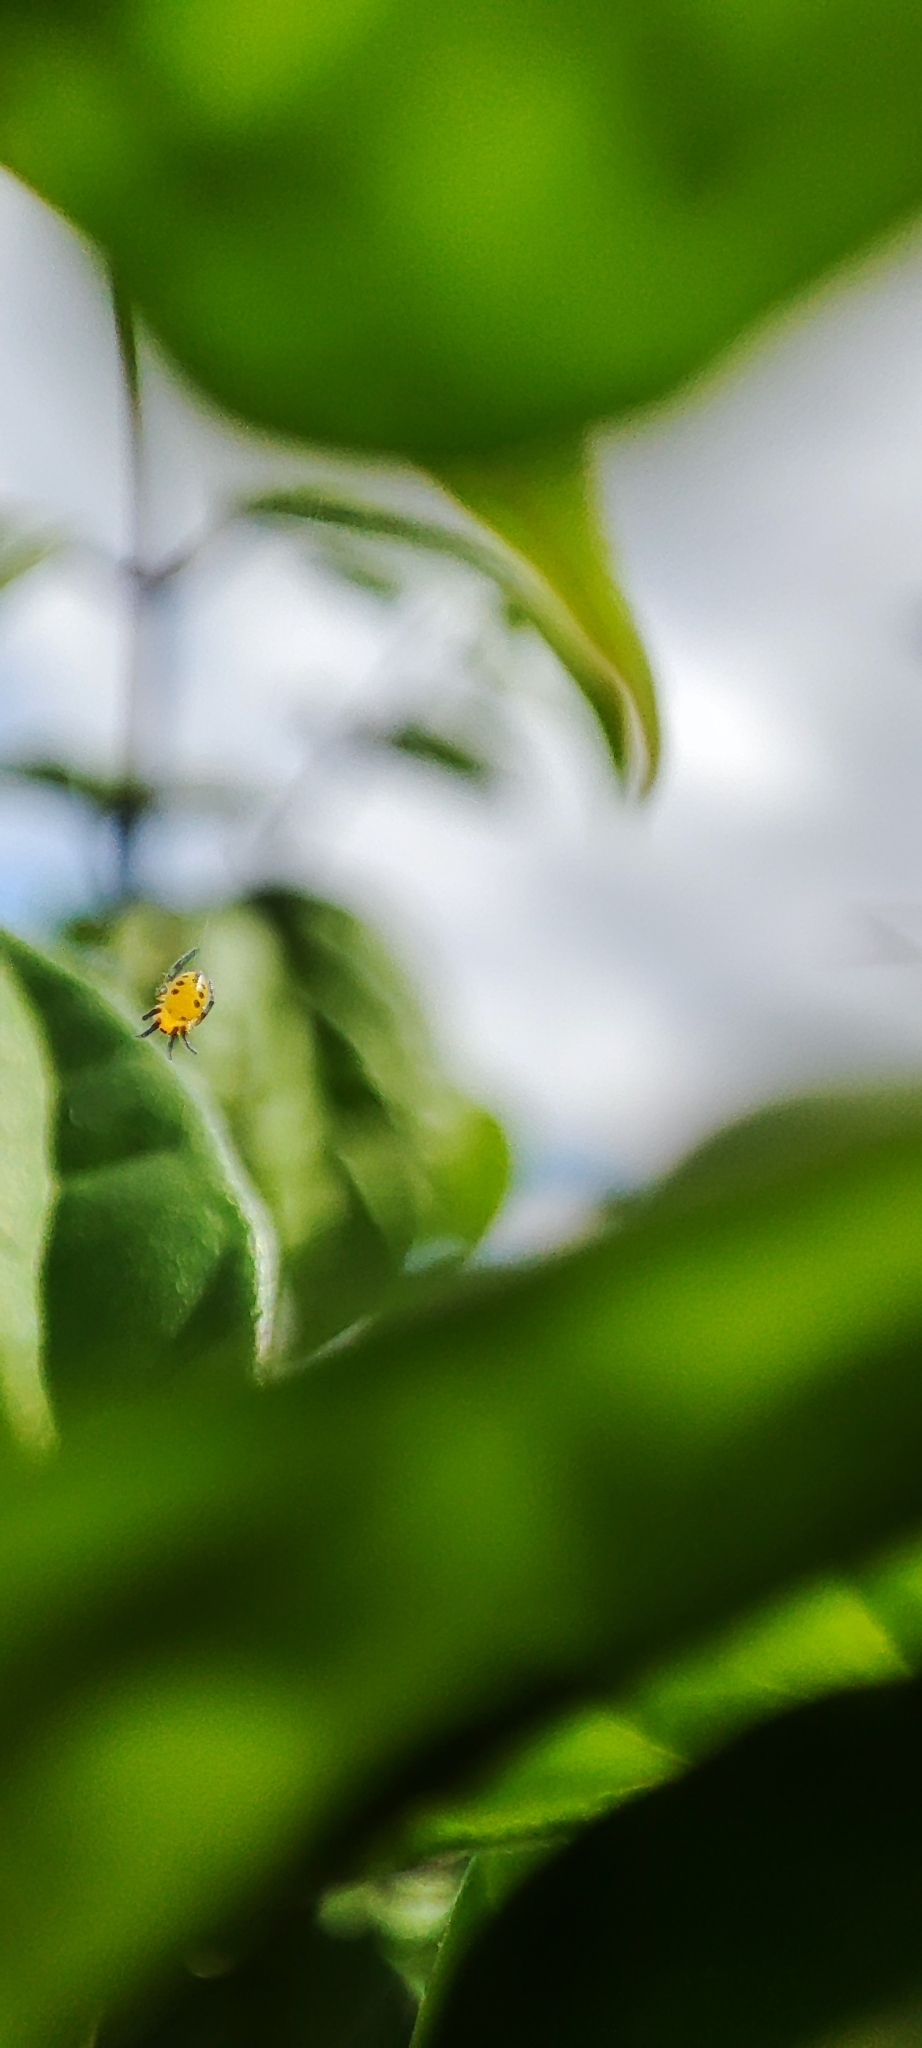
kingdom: Animalia
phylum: Arthropoda
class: Arachnida
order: Araneae
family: Araneidae
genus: Eriophora
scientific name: Eriophora ravilla
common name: Orb weavers
